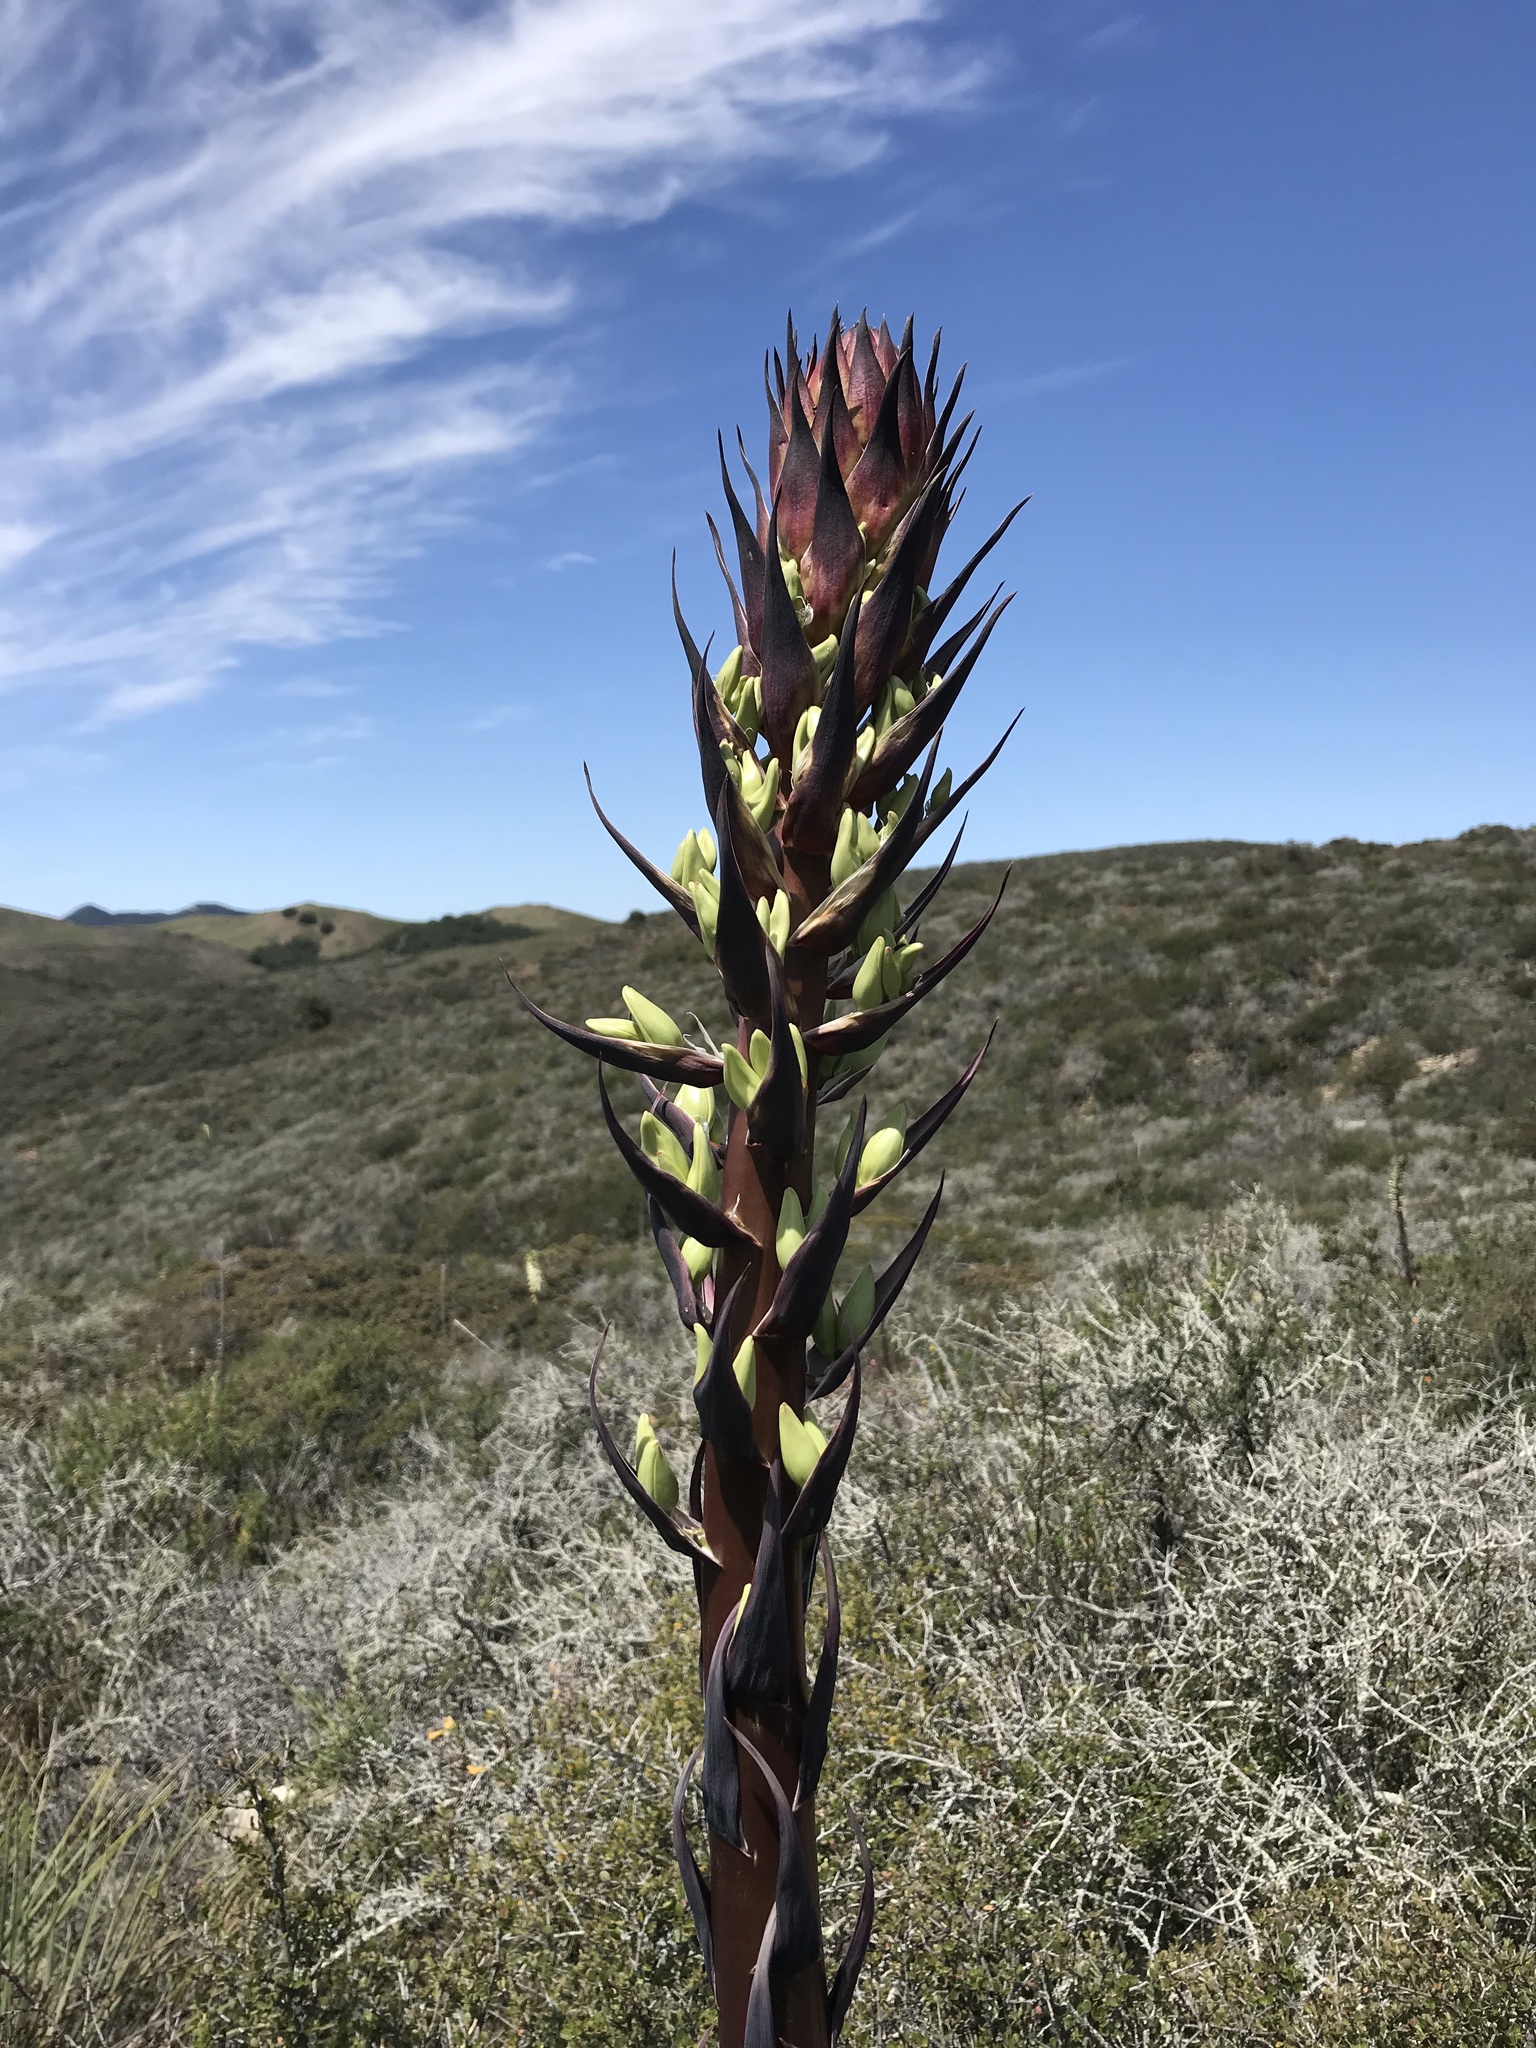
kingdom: Plantae
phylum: Tracheophyta
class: Liliopsida
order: Asparagales
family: Asparagaceae
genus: Hesperoyucca
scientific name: Hesperoyucca whipplei
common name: Our lord's-candle
